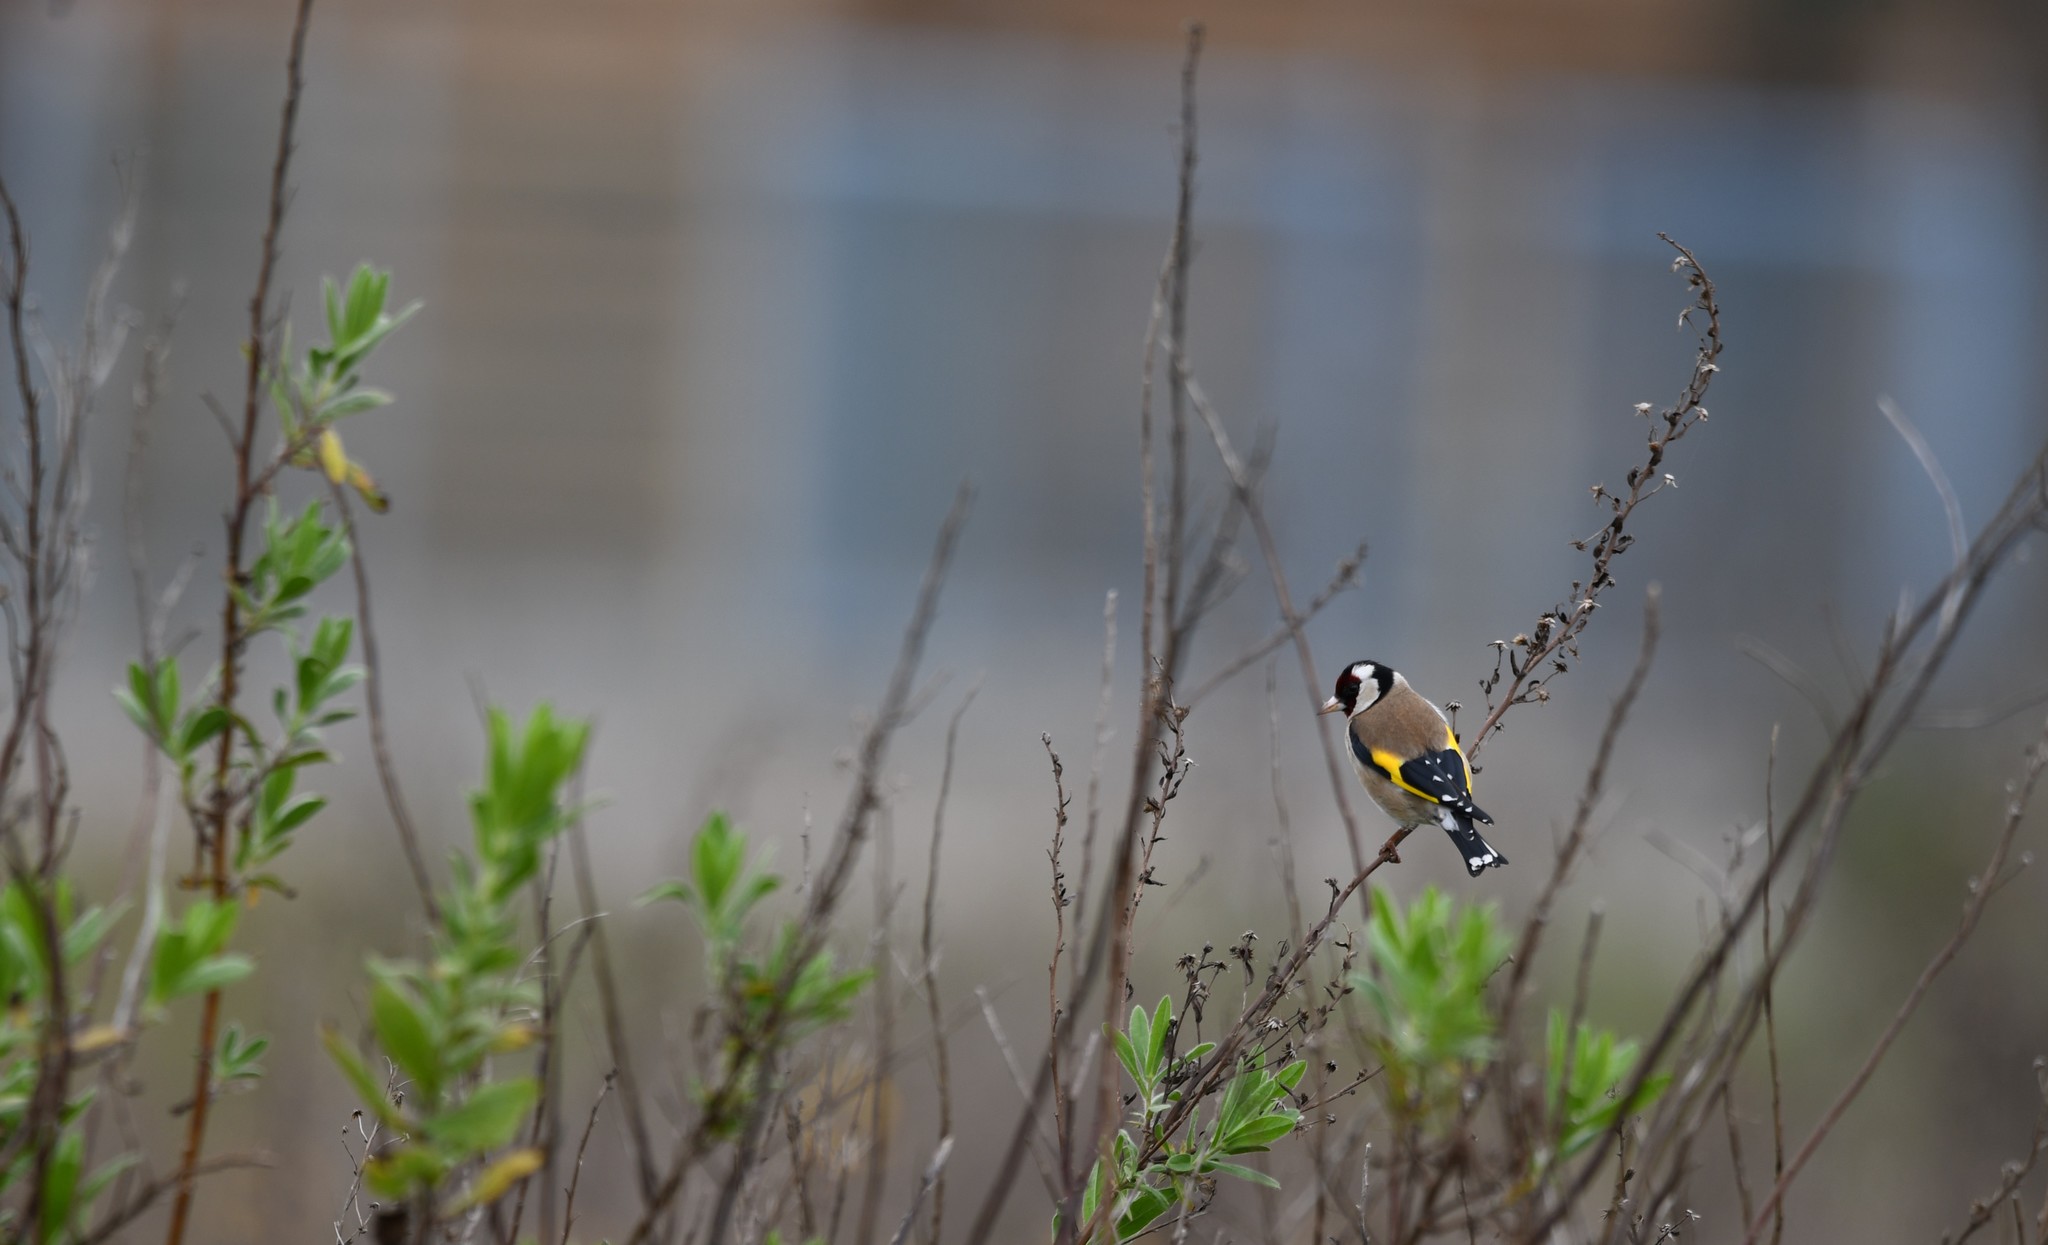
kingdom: Animalia
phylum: Chordata
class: Aves
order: Passeriformes
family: Fringillidae
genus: Carduelis
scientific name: Carduelis carduelis
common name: European goldfinch
